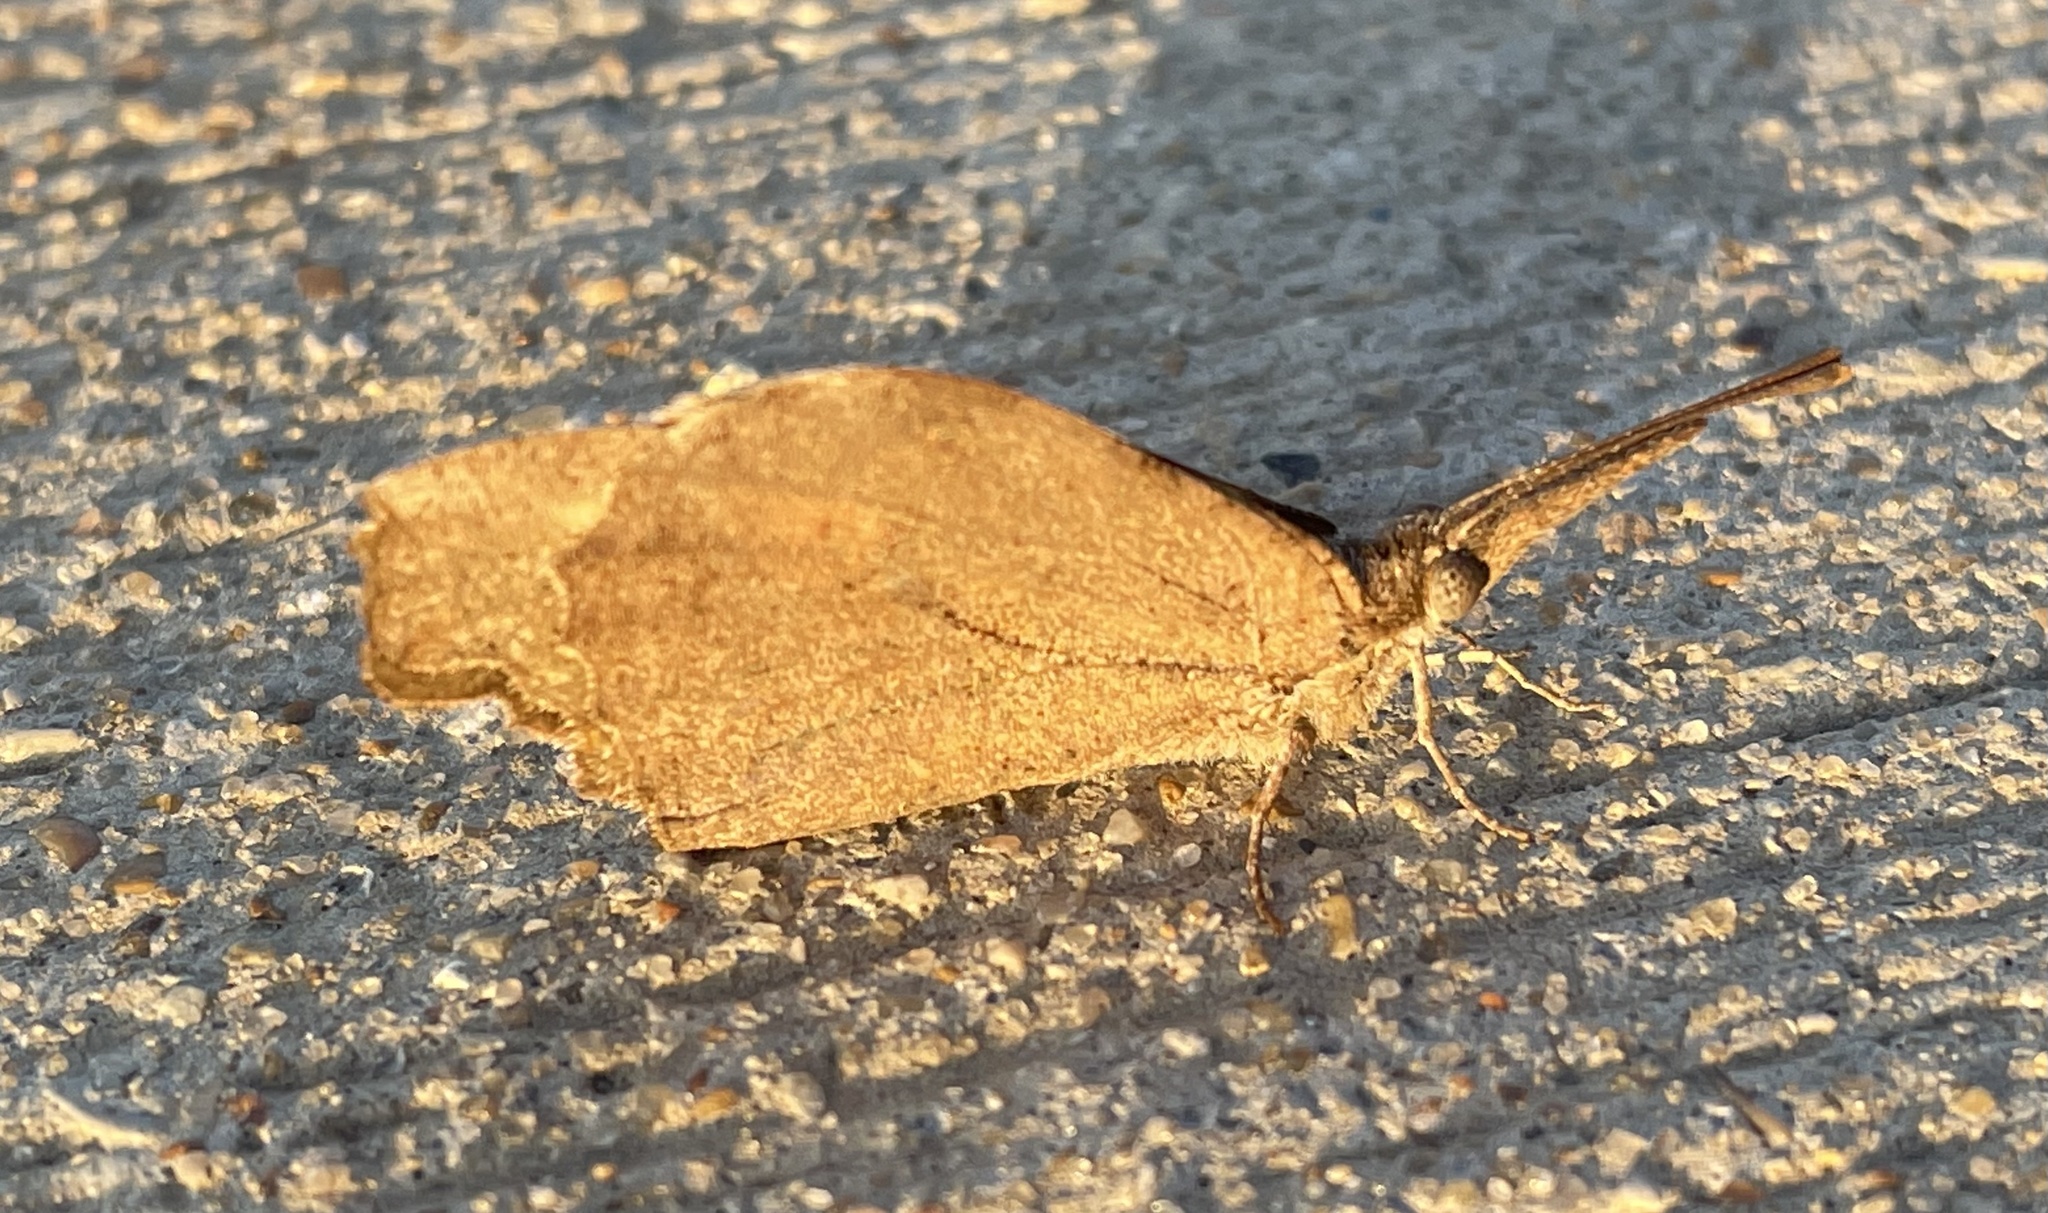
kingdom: Animalia
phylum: Arthropoda
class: Insecta
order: Lepidoptera
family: Nymphalidae
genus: Libytheana
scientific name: Libytheana carinenta
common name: American snout
